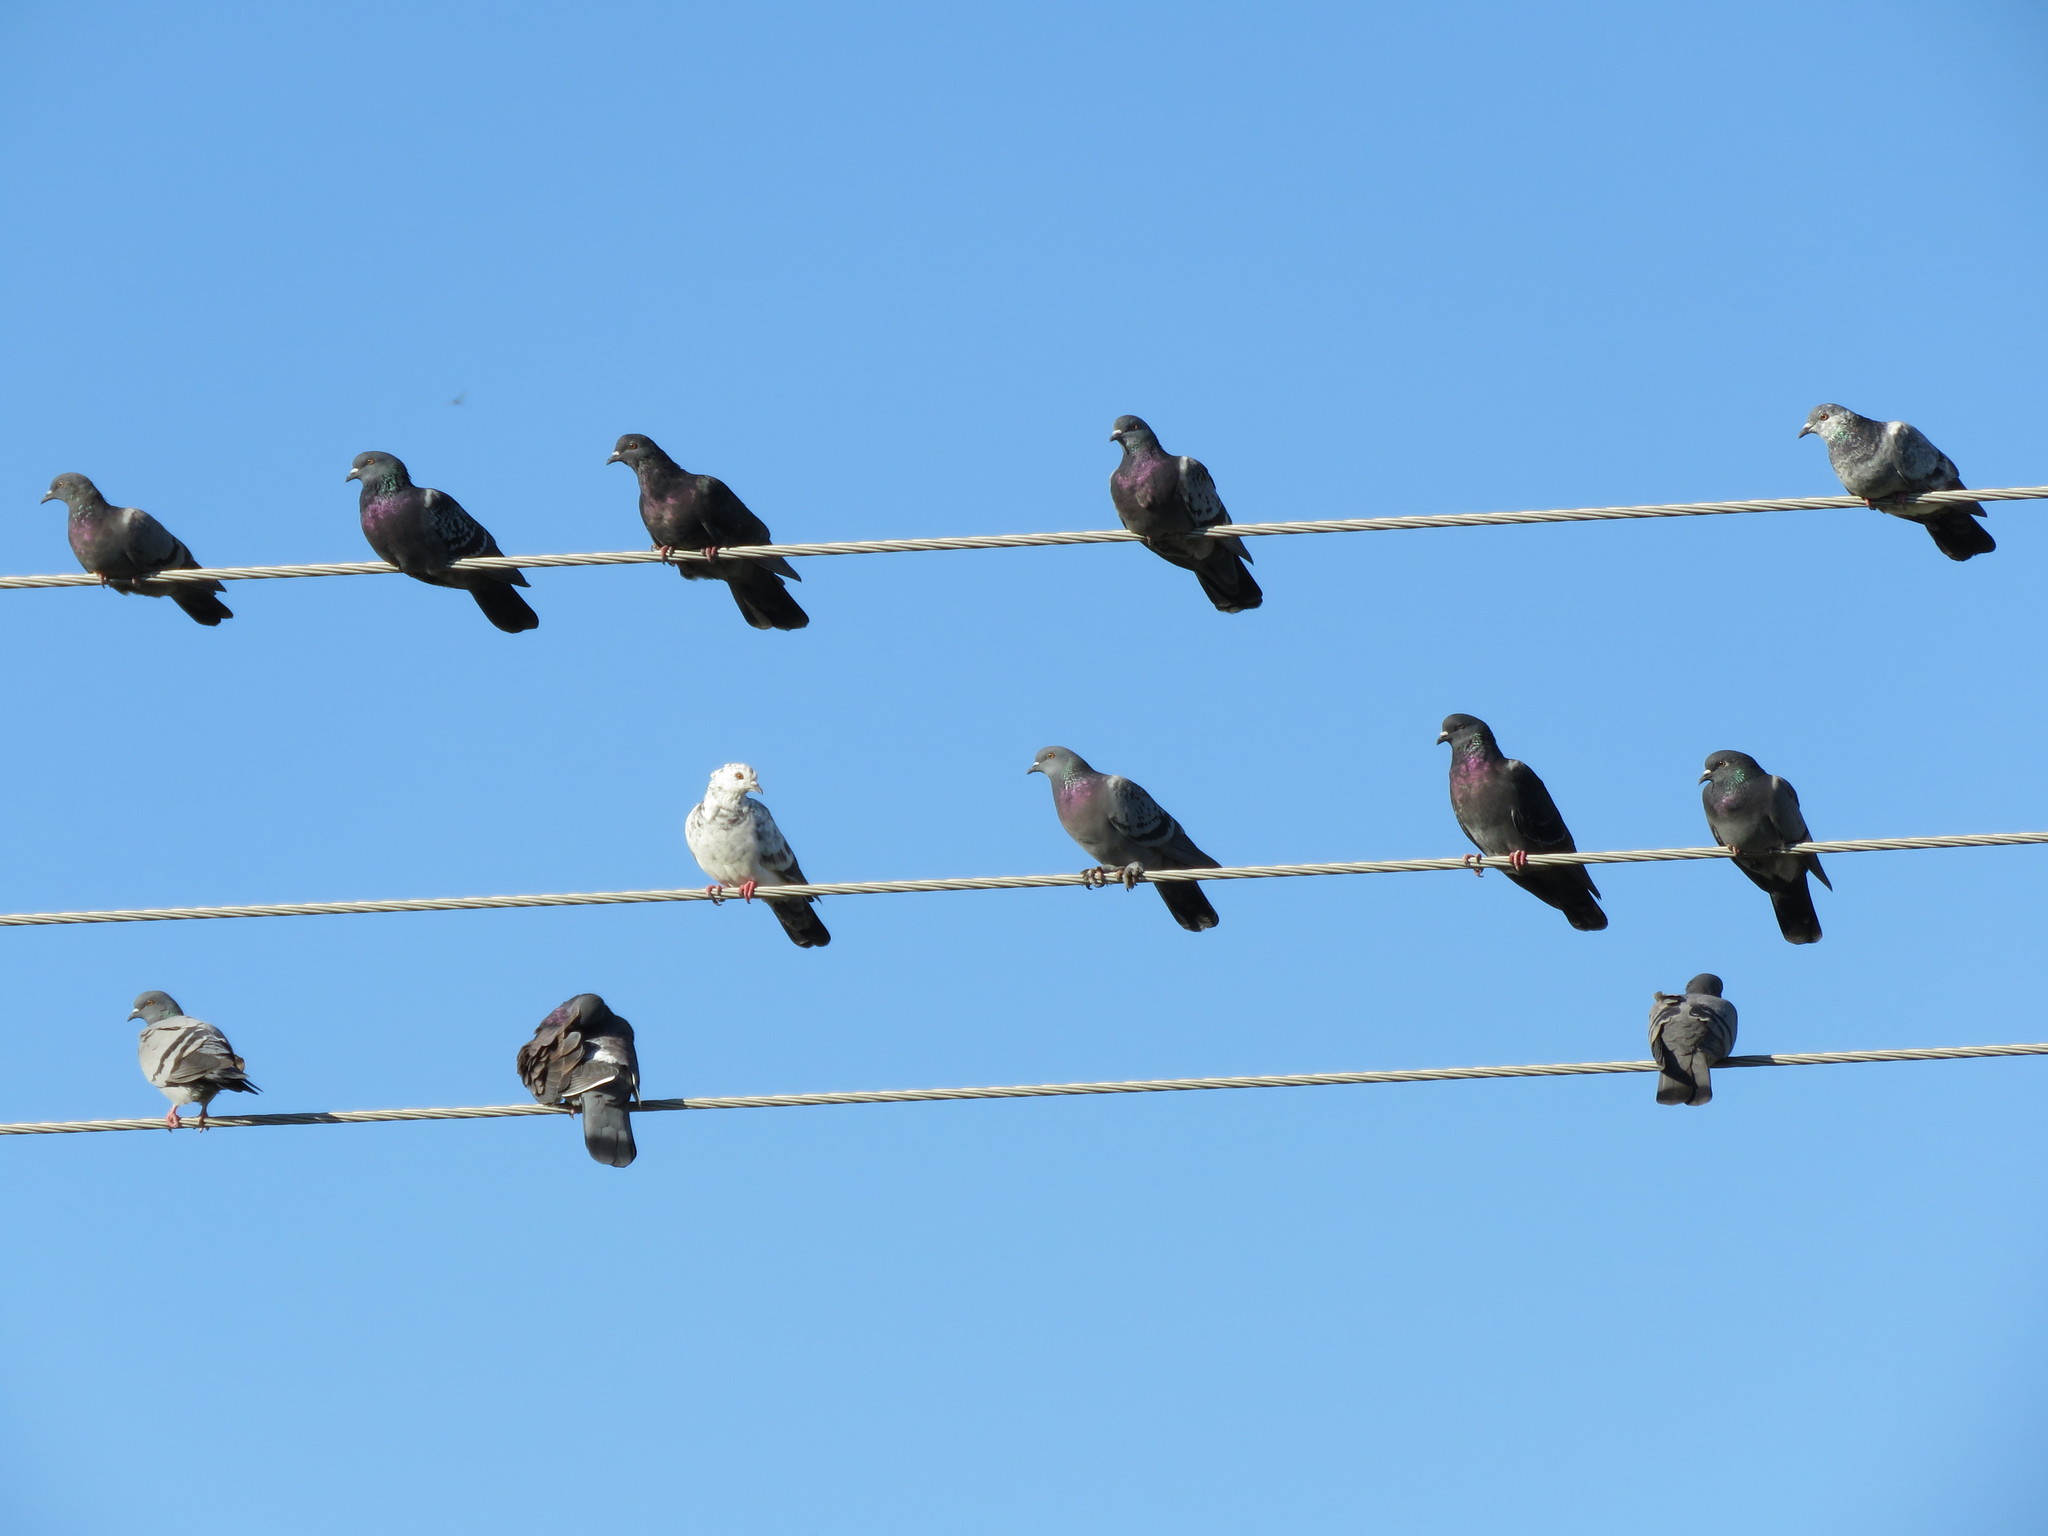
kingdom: Animalia
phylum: Chordata
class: Aves
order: Columbiformes
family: Columbidae
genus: Columba
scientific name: Columba livia
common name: Rock pigeon
